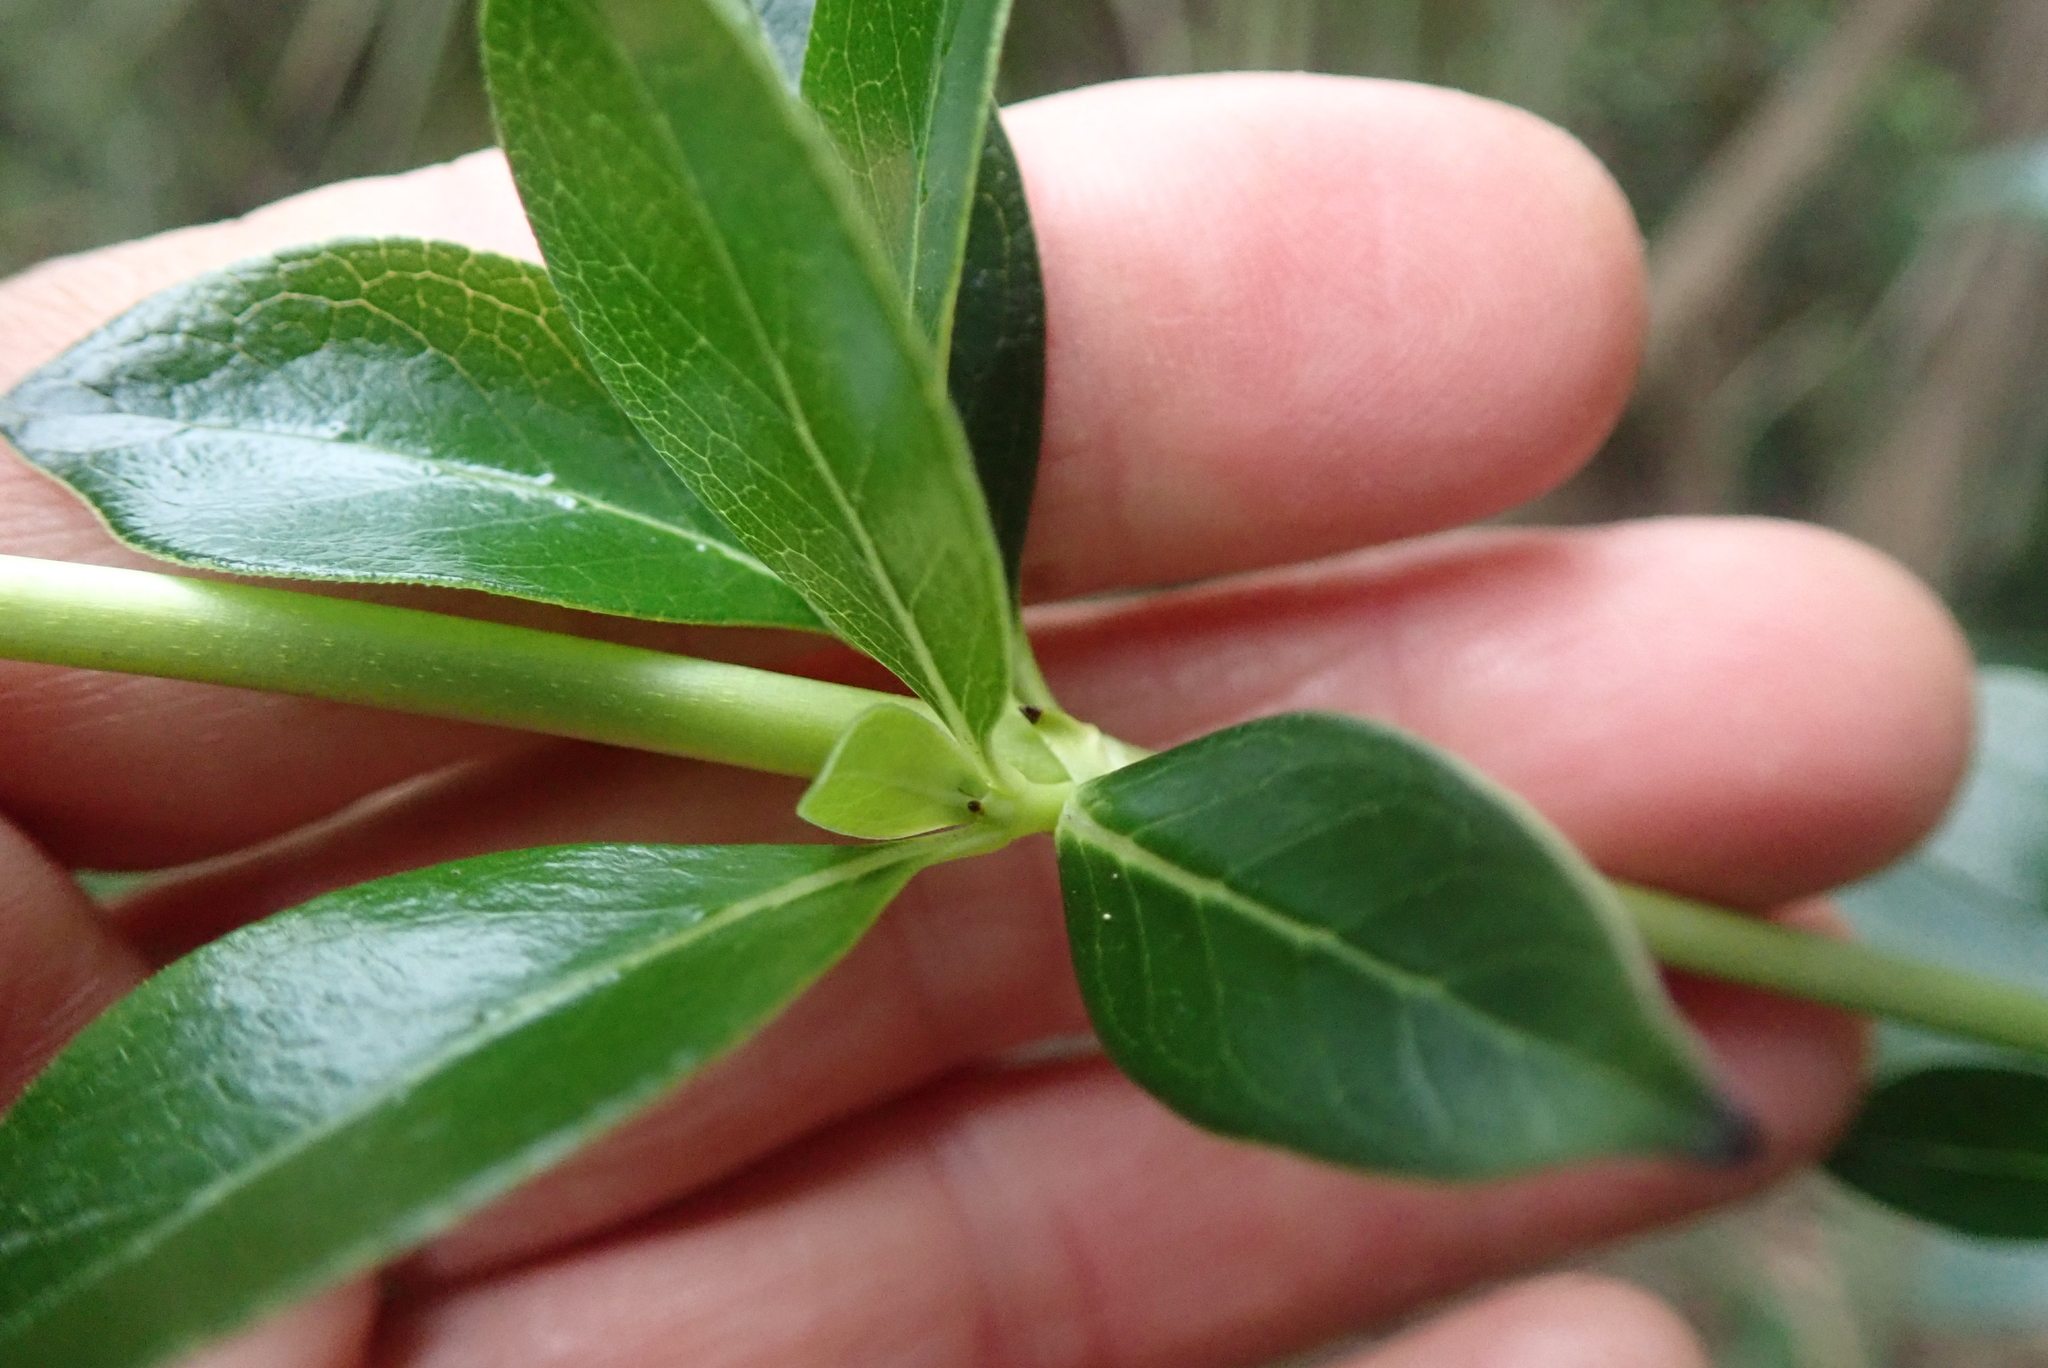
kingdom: Plantae
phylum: Tracheophyta
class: Magnoliopsida
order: Gentianales
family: Rubiaceae
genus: Coprosma
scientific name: Coprosma robusta
